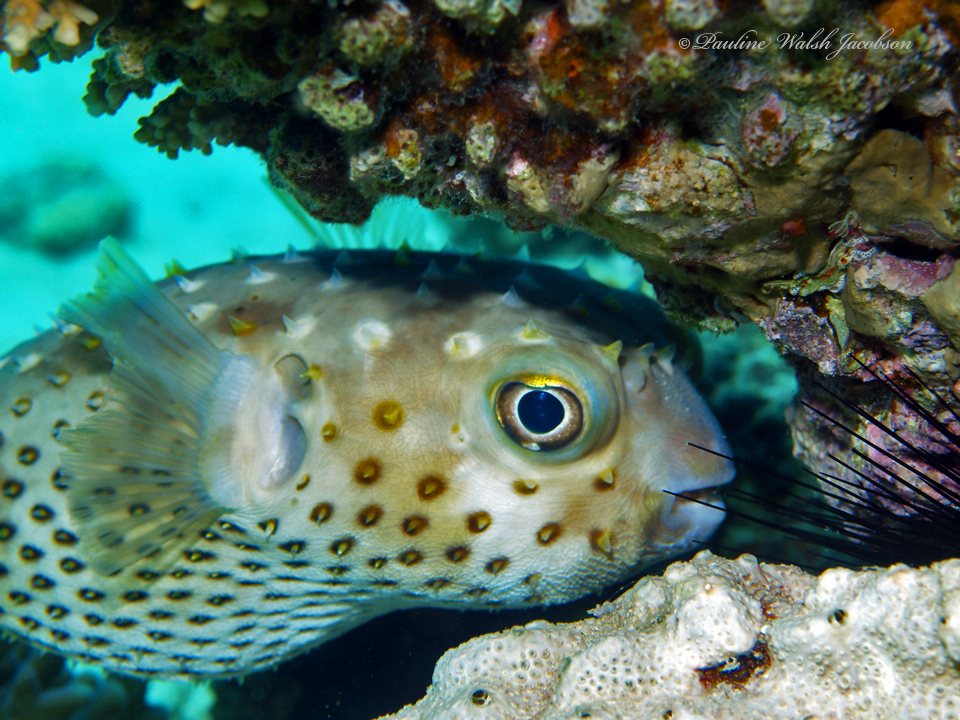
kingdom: Animalia
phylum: Chordata
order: Tetraodontiformes
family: Diodontidae
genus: Cyclichthys
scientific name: Cyclichthys spilostylus
